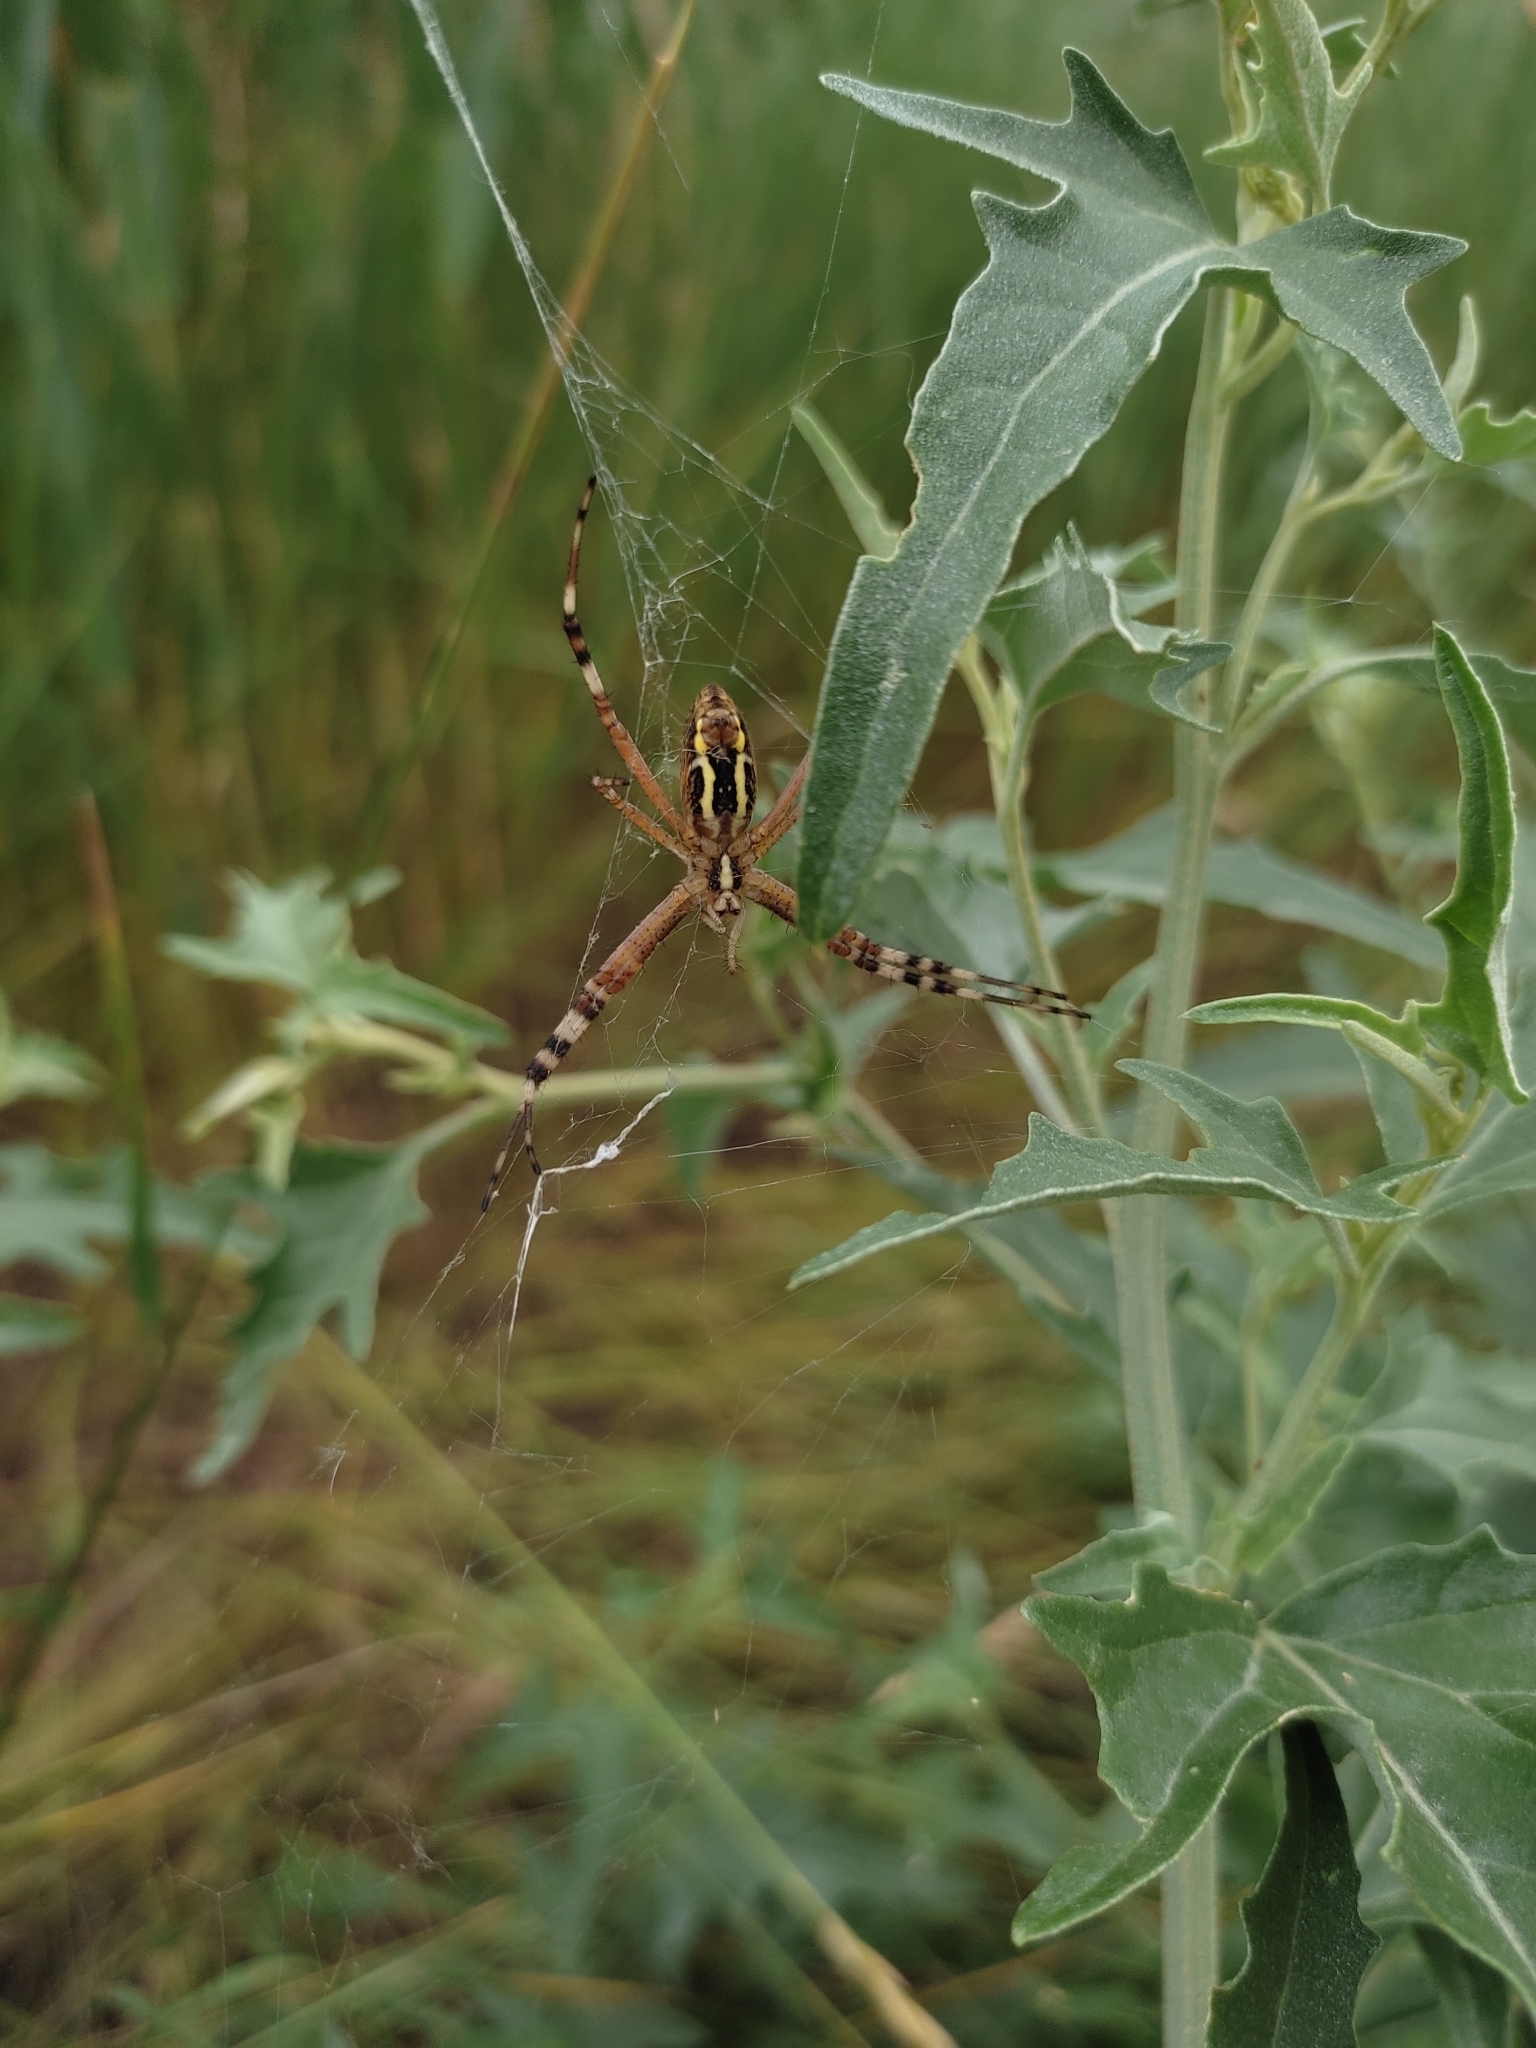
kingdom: Animalia
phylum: Arthropoda
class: Arachnida
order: Araneae
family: Araneidae
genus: Argiope
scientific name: Argiope bruennichi
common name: Wasp spider
